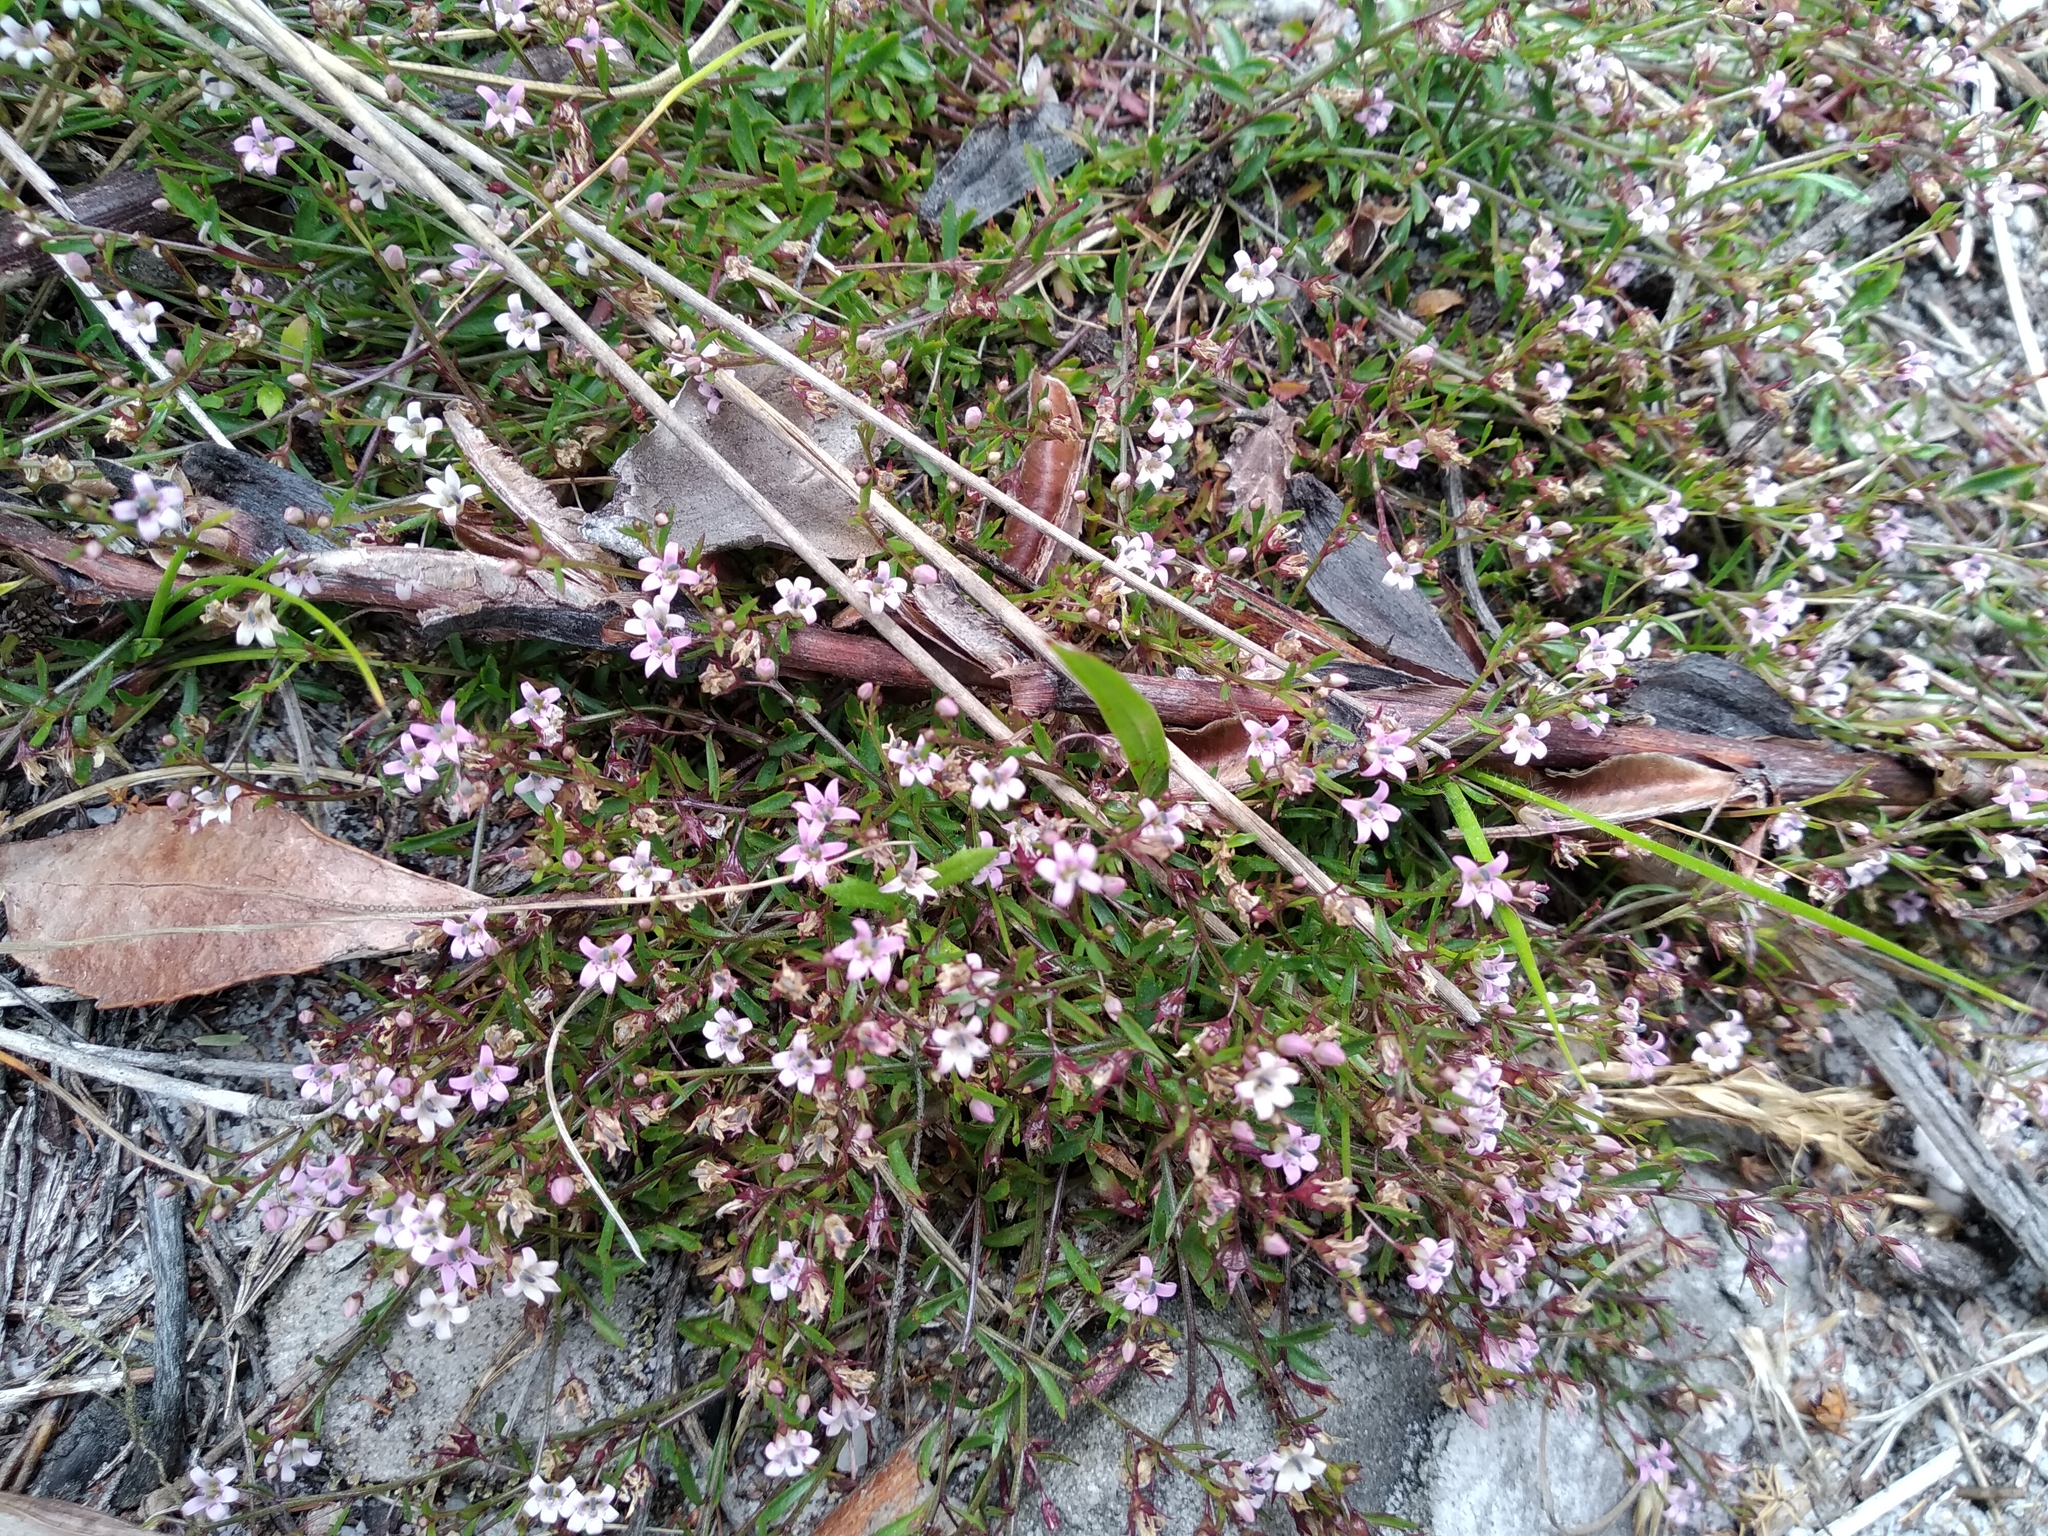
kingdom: Plantae
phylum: Tracheophyta
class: Magnoliopsida
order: Asterales
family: Campanulaceae
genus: Lobelia
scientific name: Lobelia eckloniana
